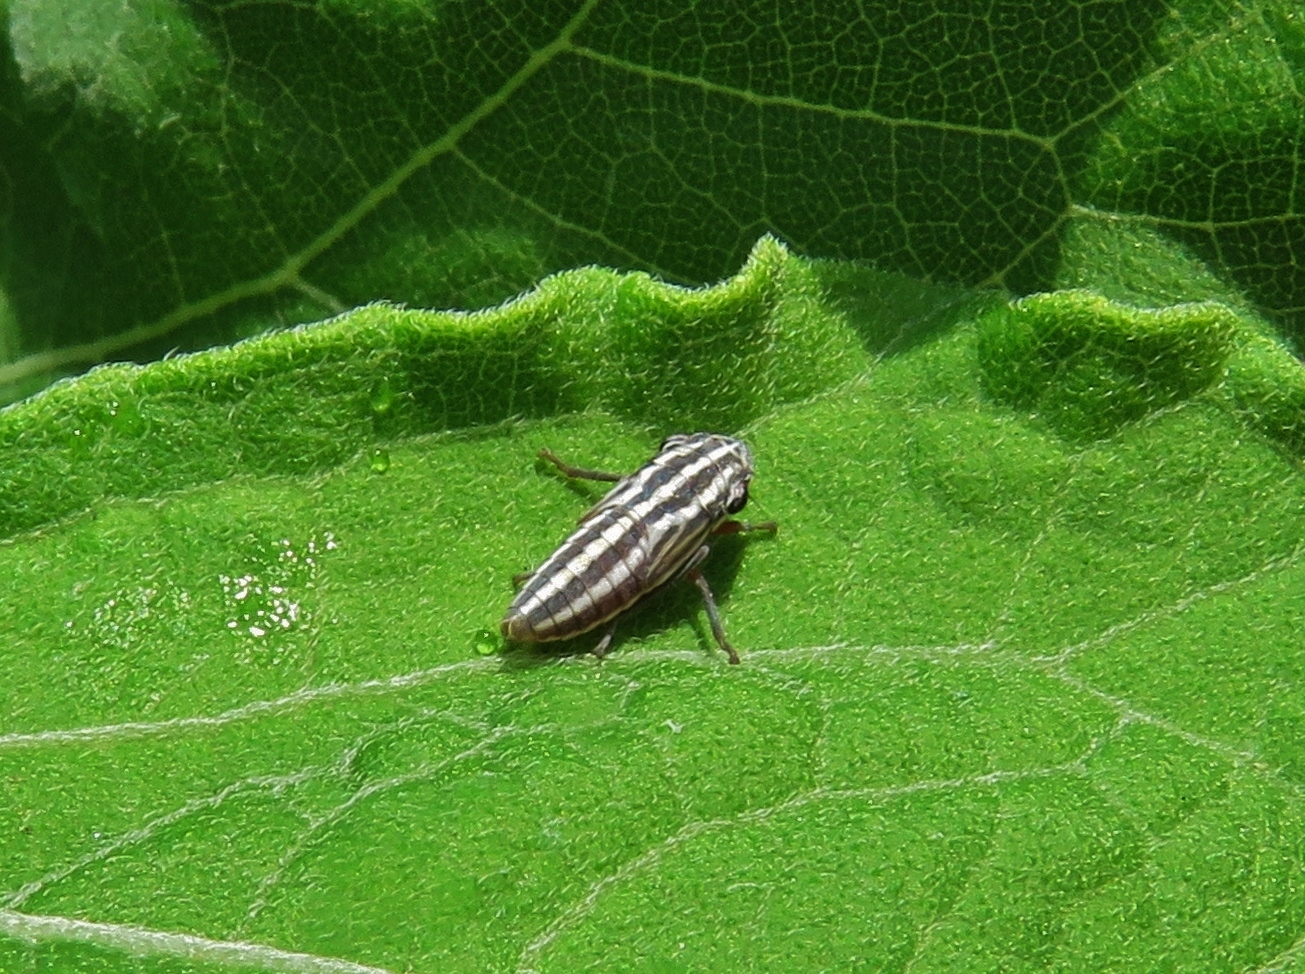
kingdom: Animalia
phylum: Arthropoda
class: Insecta
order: Hemiptera
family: Cicadellidae
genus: Cuerna
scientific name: Cuerna costalis
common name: Lateral-lined sharpshooter
